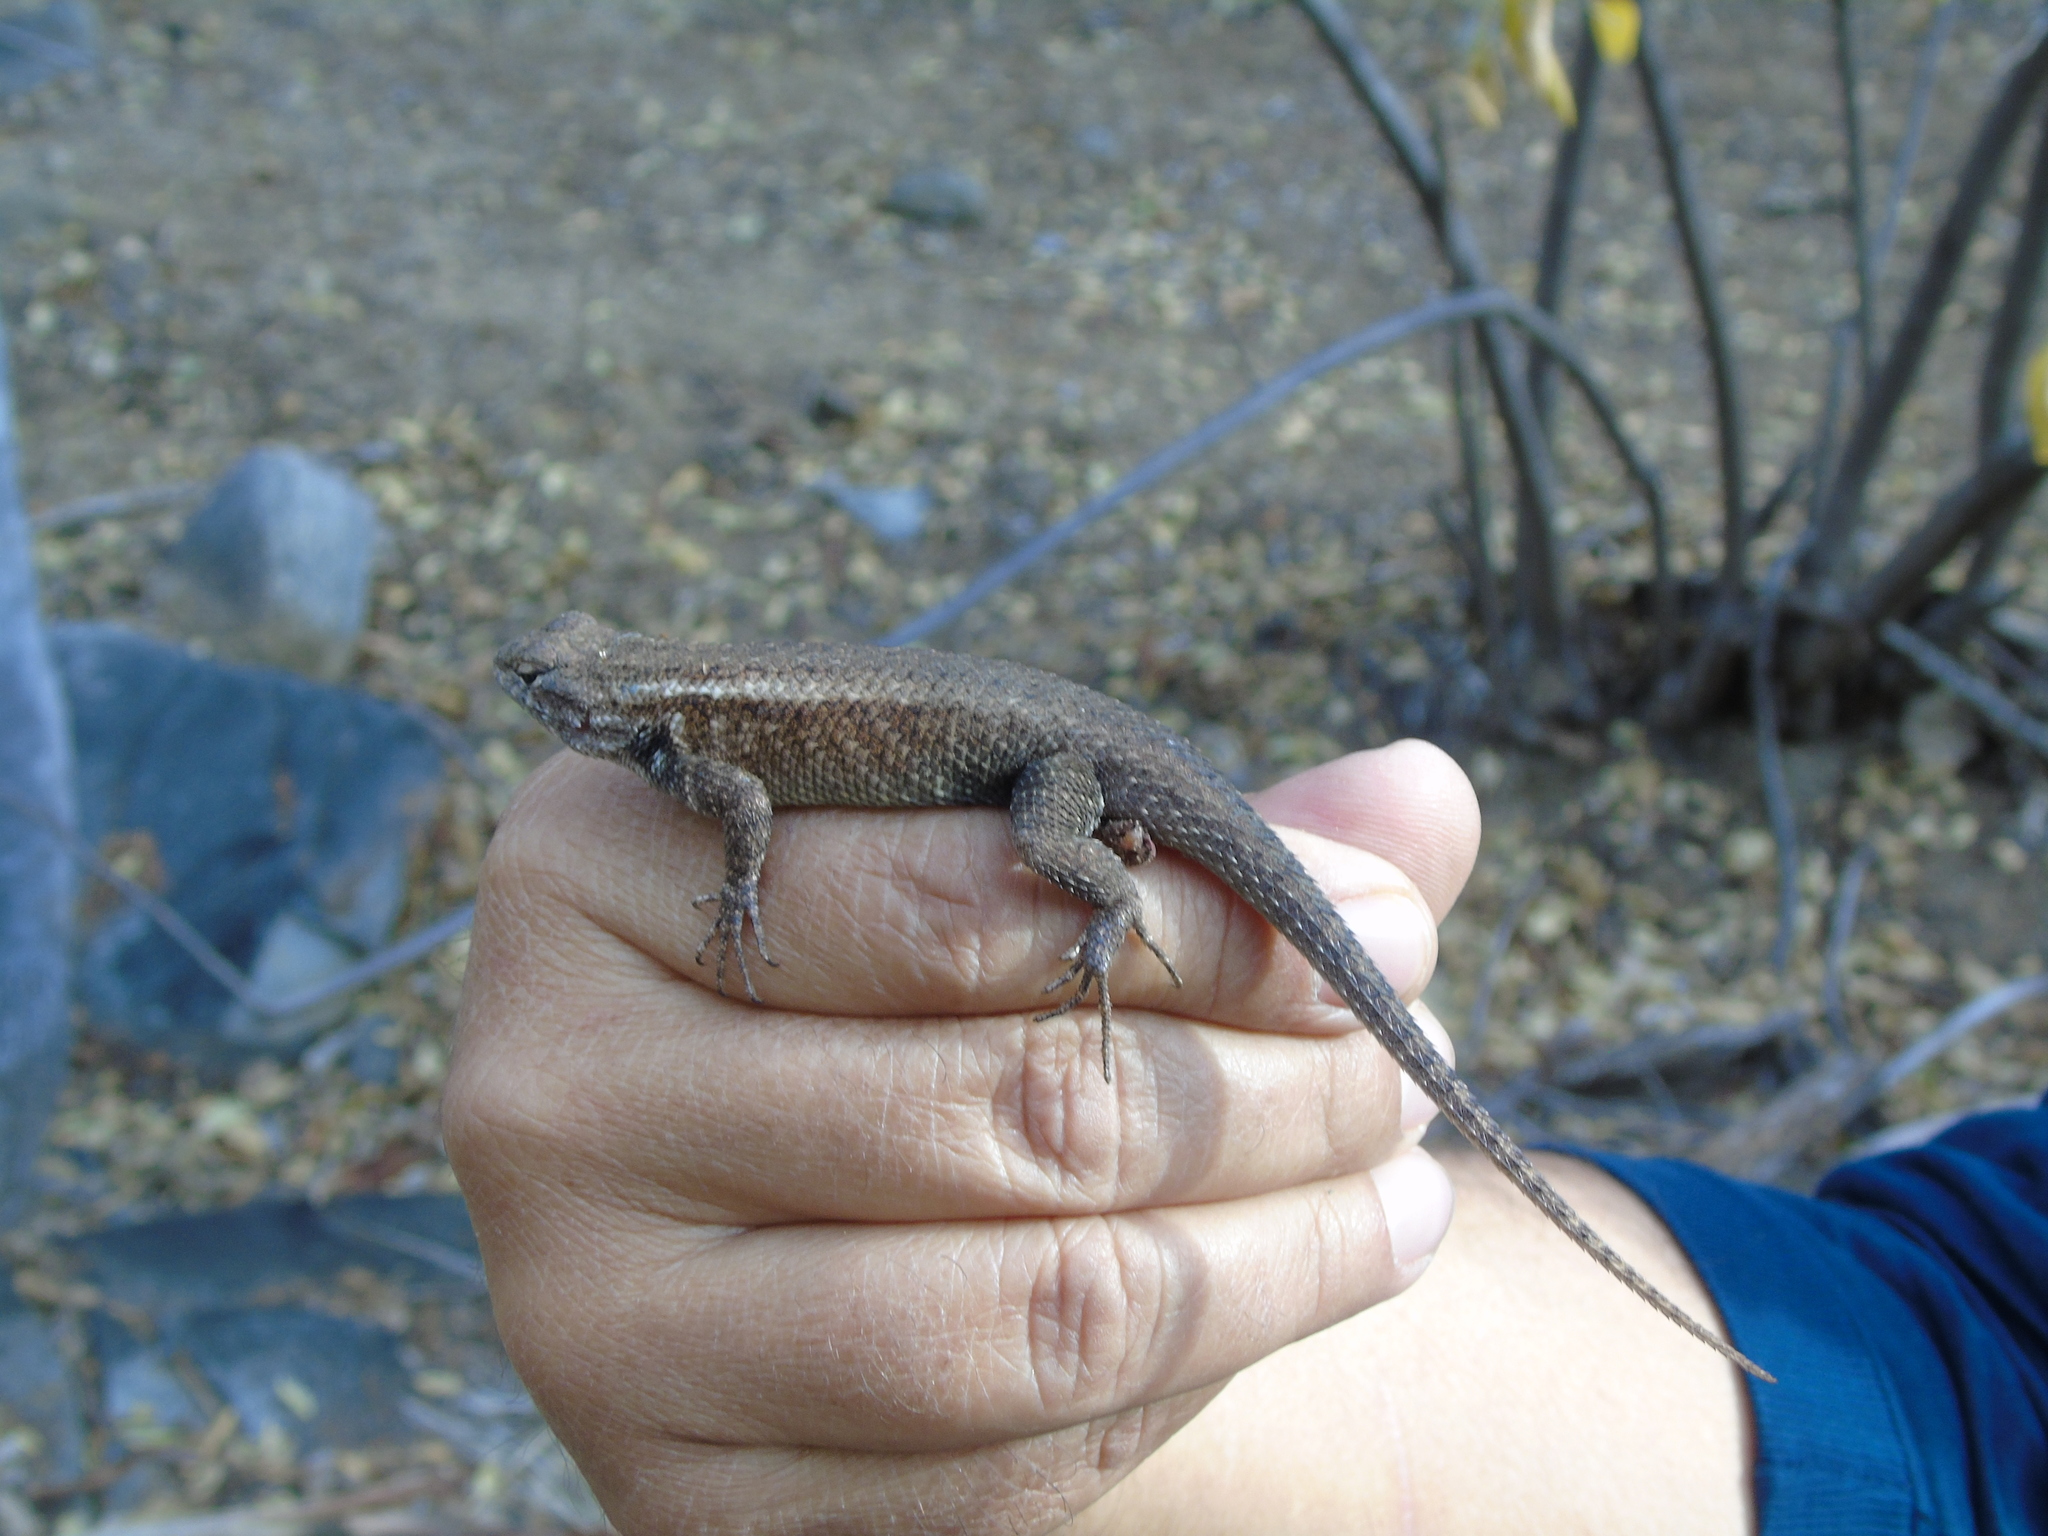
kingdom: Animalia
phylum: Chordata
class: Squamata
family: Phrynosomatidae
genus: Sceloporus
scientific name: Sceloporus licki
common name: Cape arboreal spiny lizard
